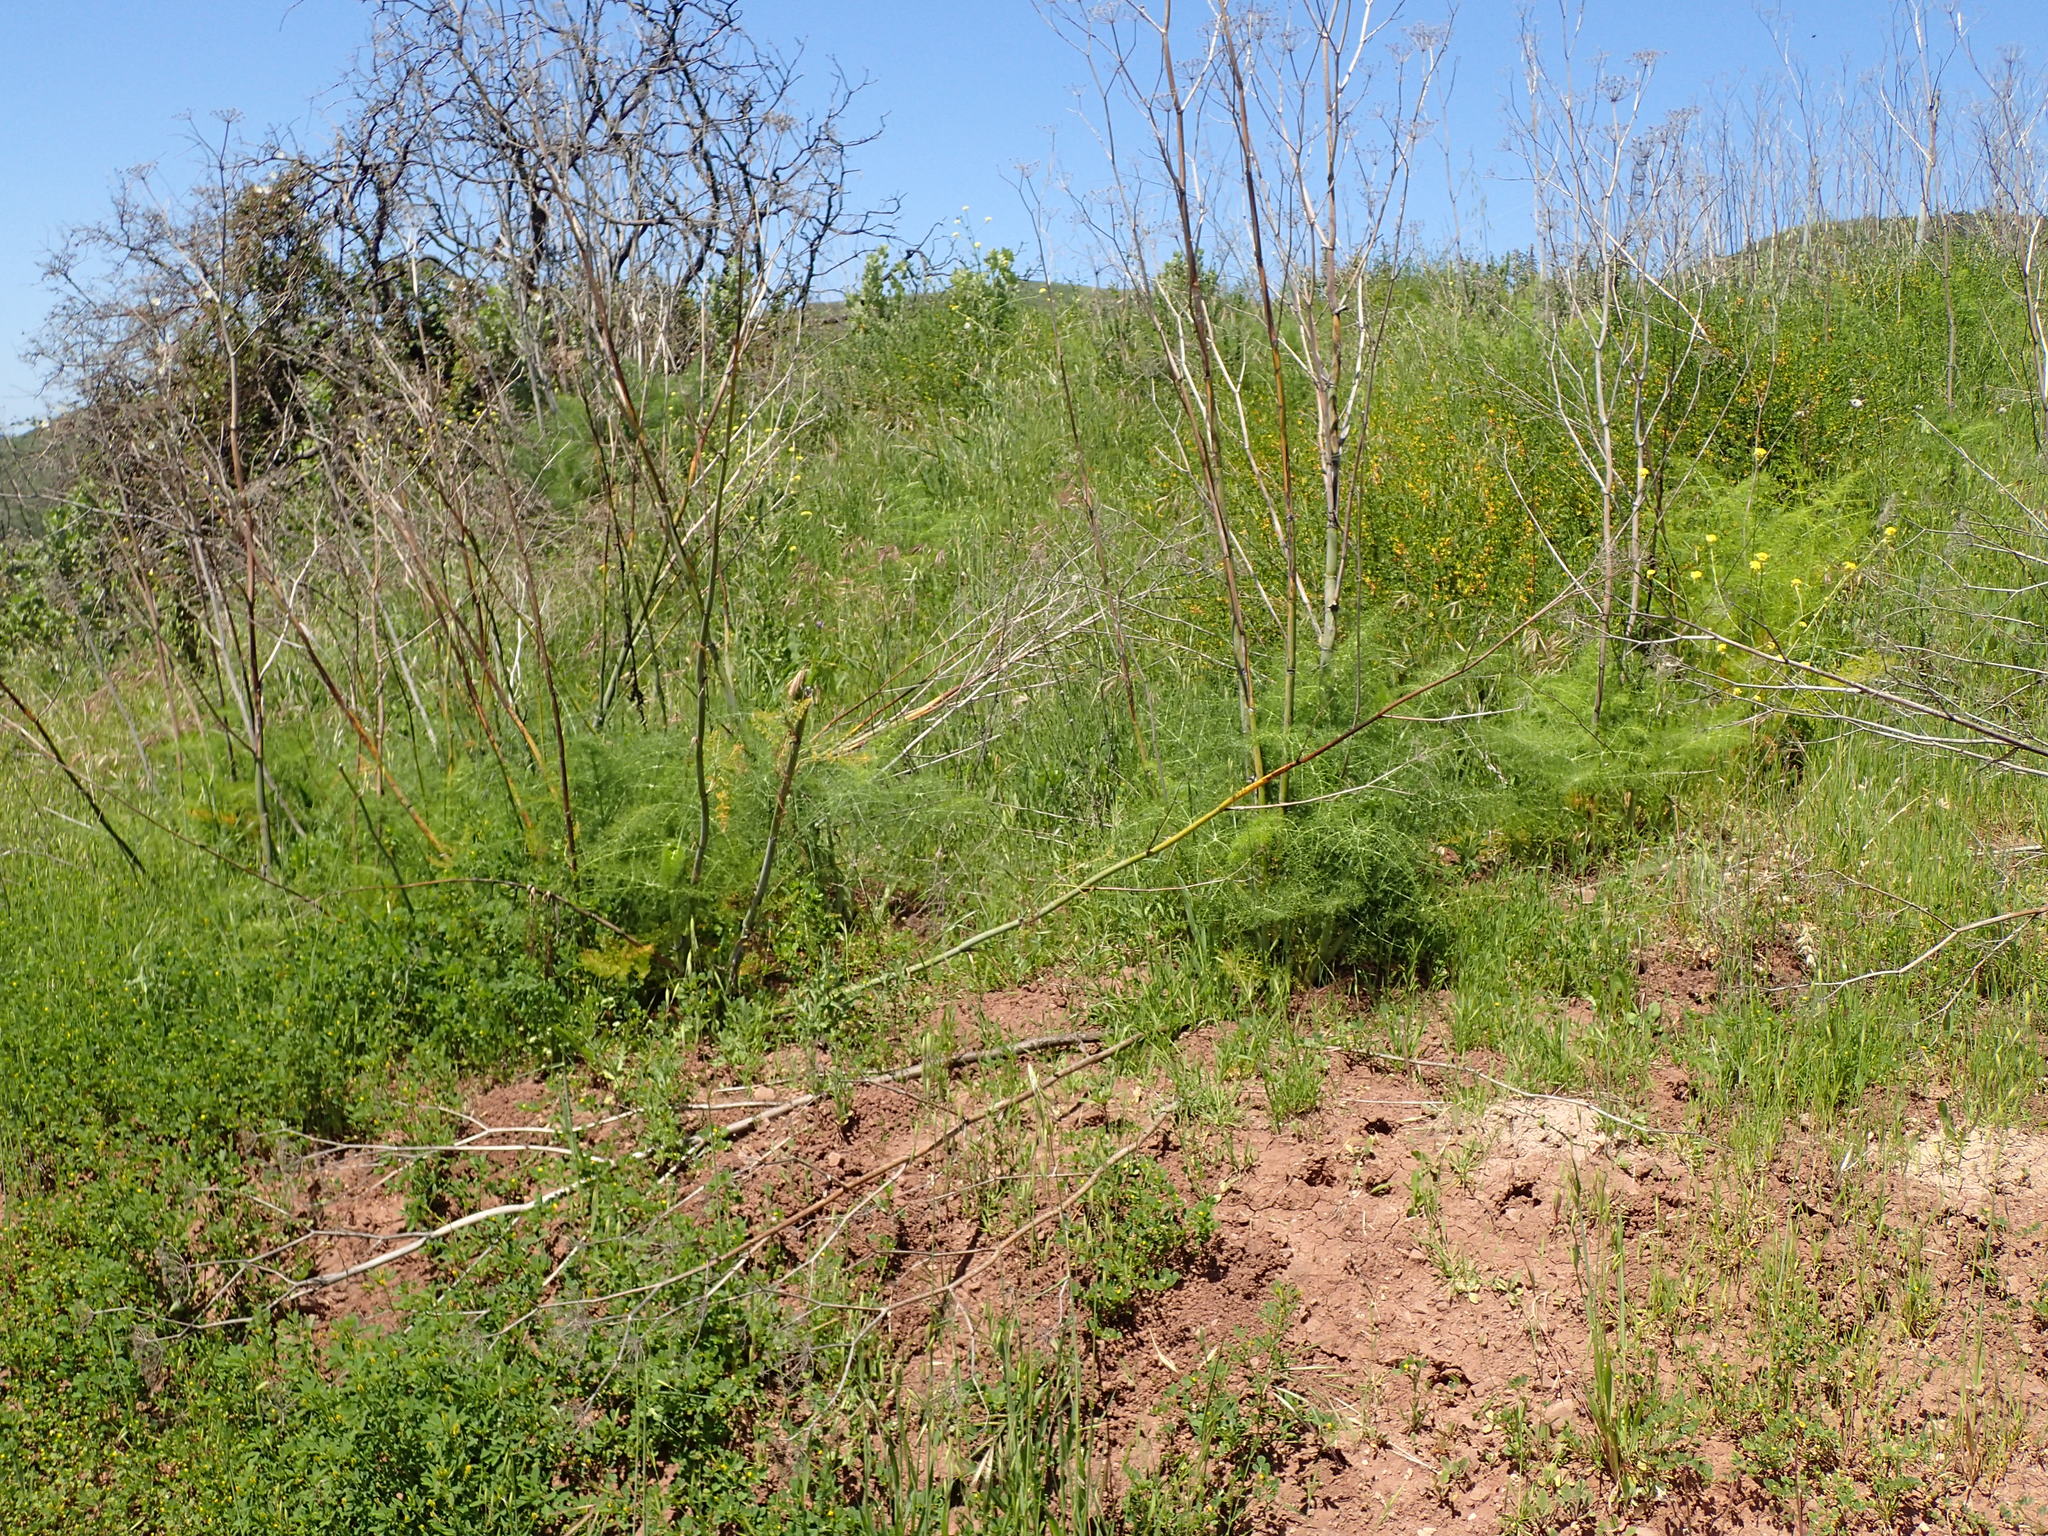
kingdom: Plantae
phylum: Tracheophyta
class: Magnoliopsida
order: Apiales
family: Apiaceae
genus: Foeniculum
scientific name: Foeniculum vulgare
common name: Fennel
